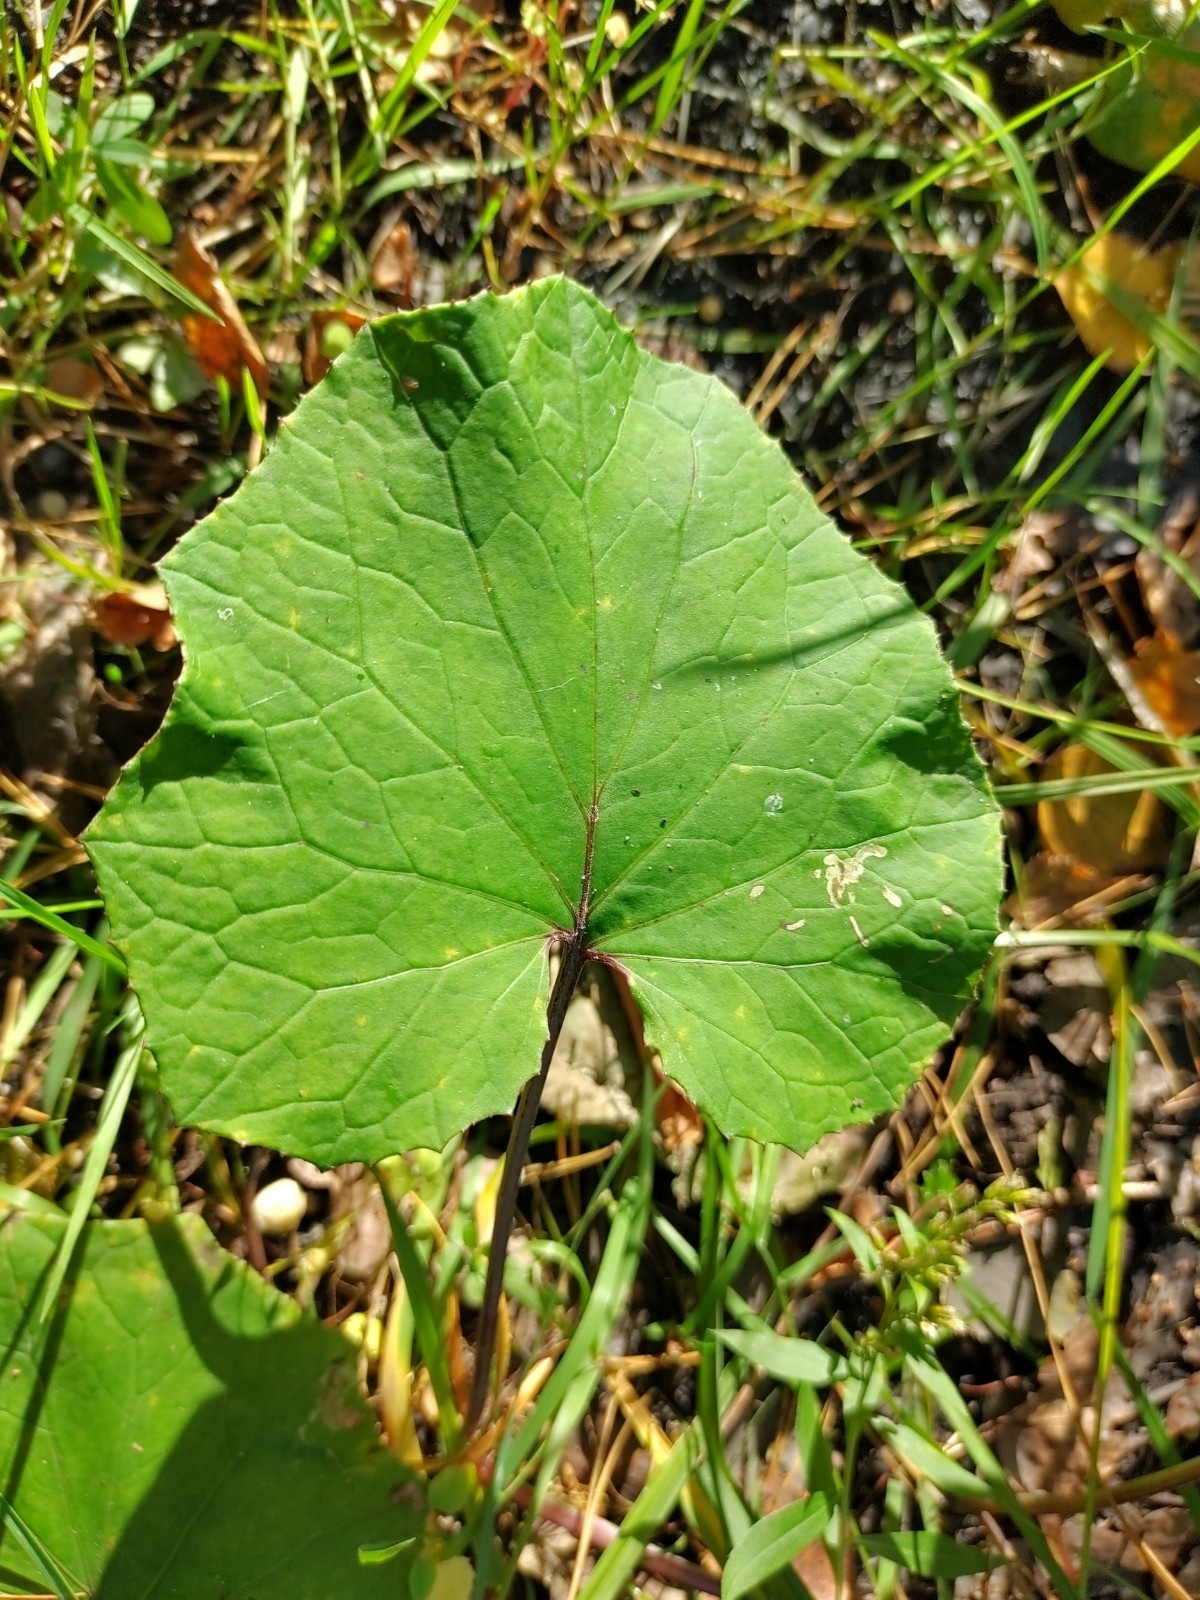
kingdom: Plantae
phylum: Tracheophyta
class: Magnoliopsida
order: Asterales
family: Asteraceae
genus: Tussilago
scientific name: Tussilago farfara
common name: Coltsfoot
